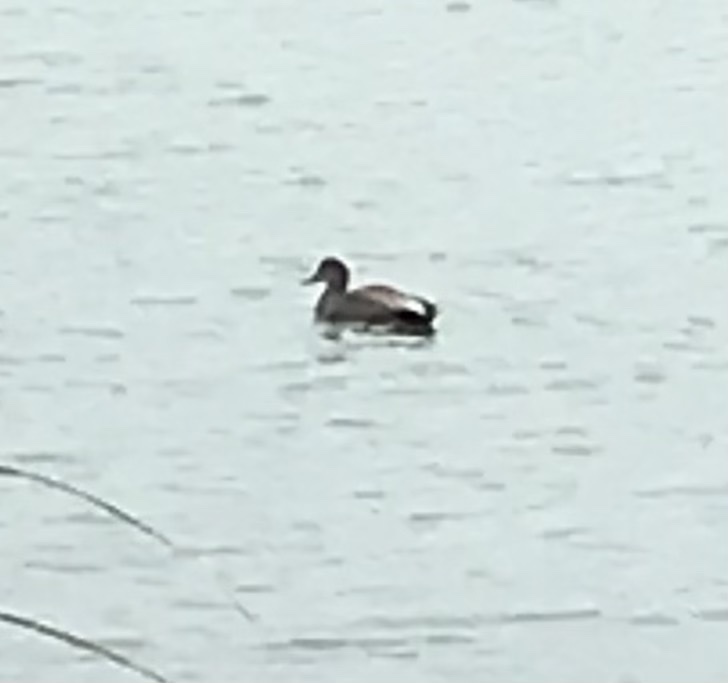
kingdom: Animalia
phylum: Chordata
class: Aves
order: Anseriformes
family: Anatidae
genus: Mareca
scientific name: Mareca strepera
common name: Gadwall
